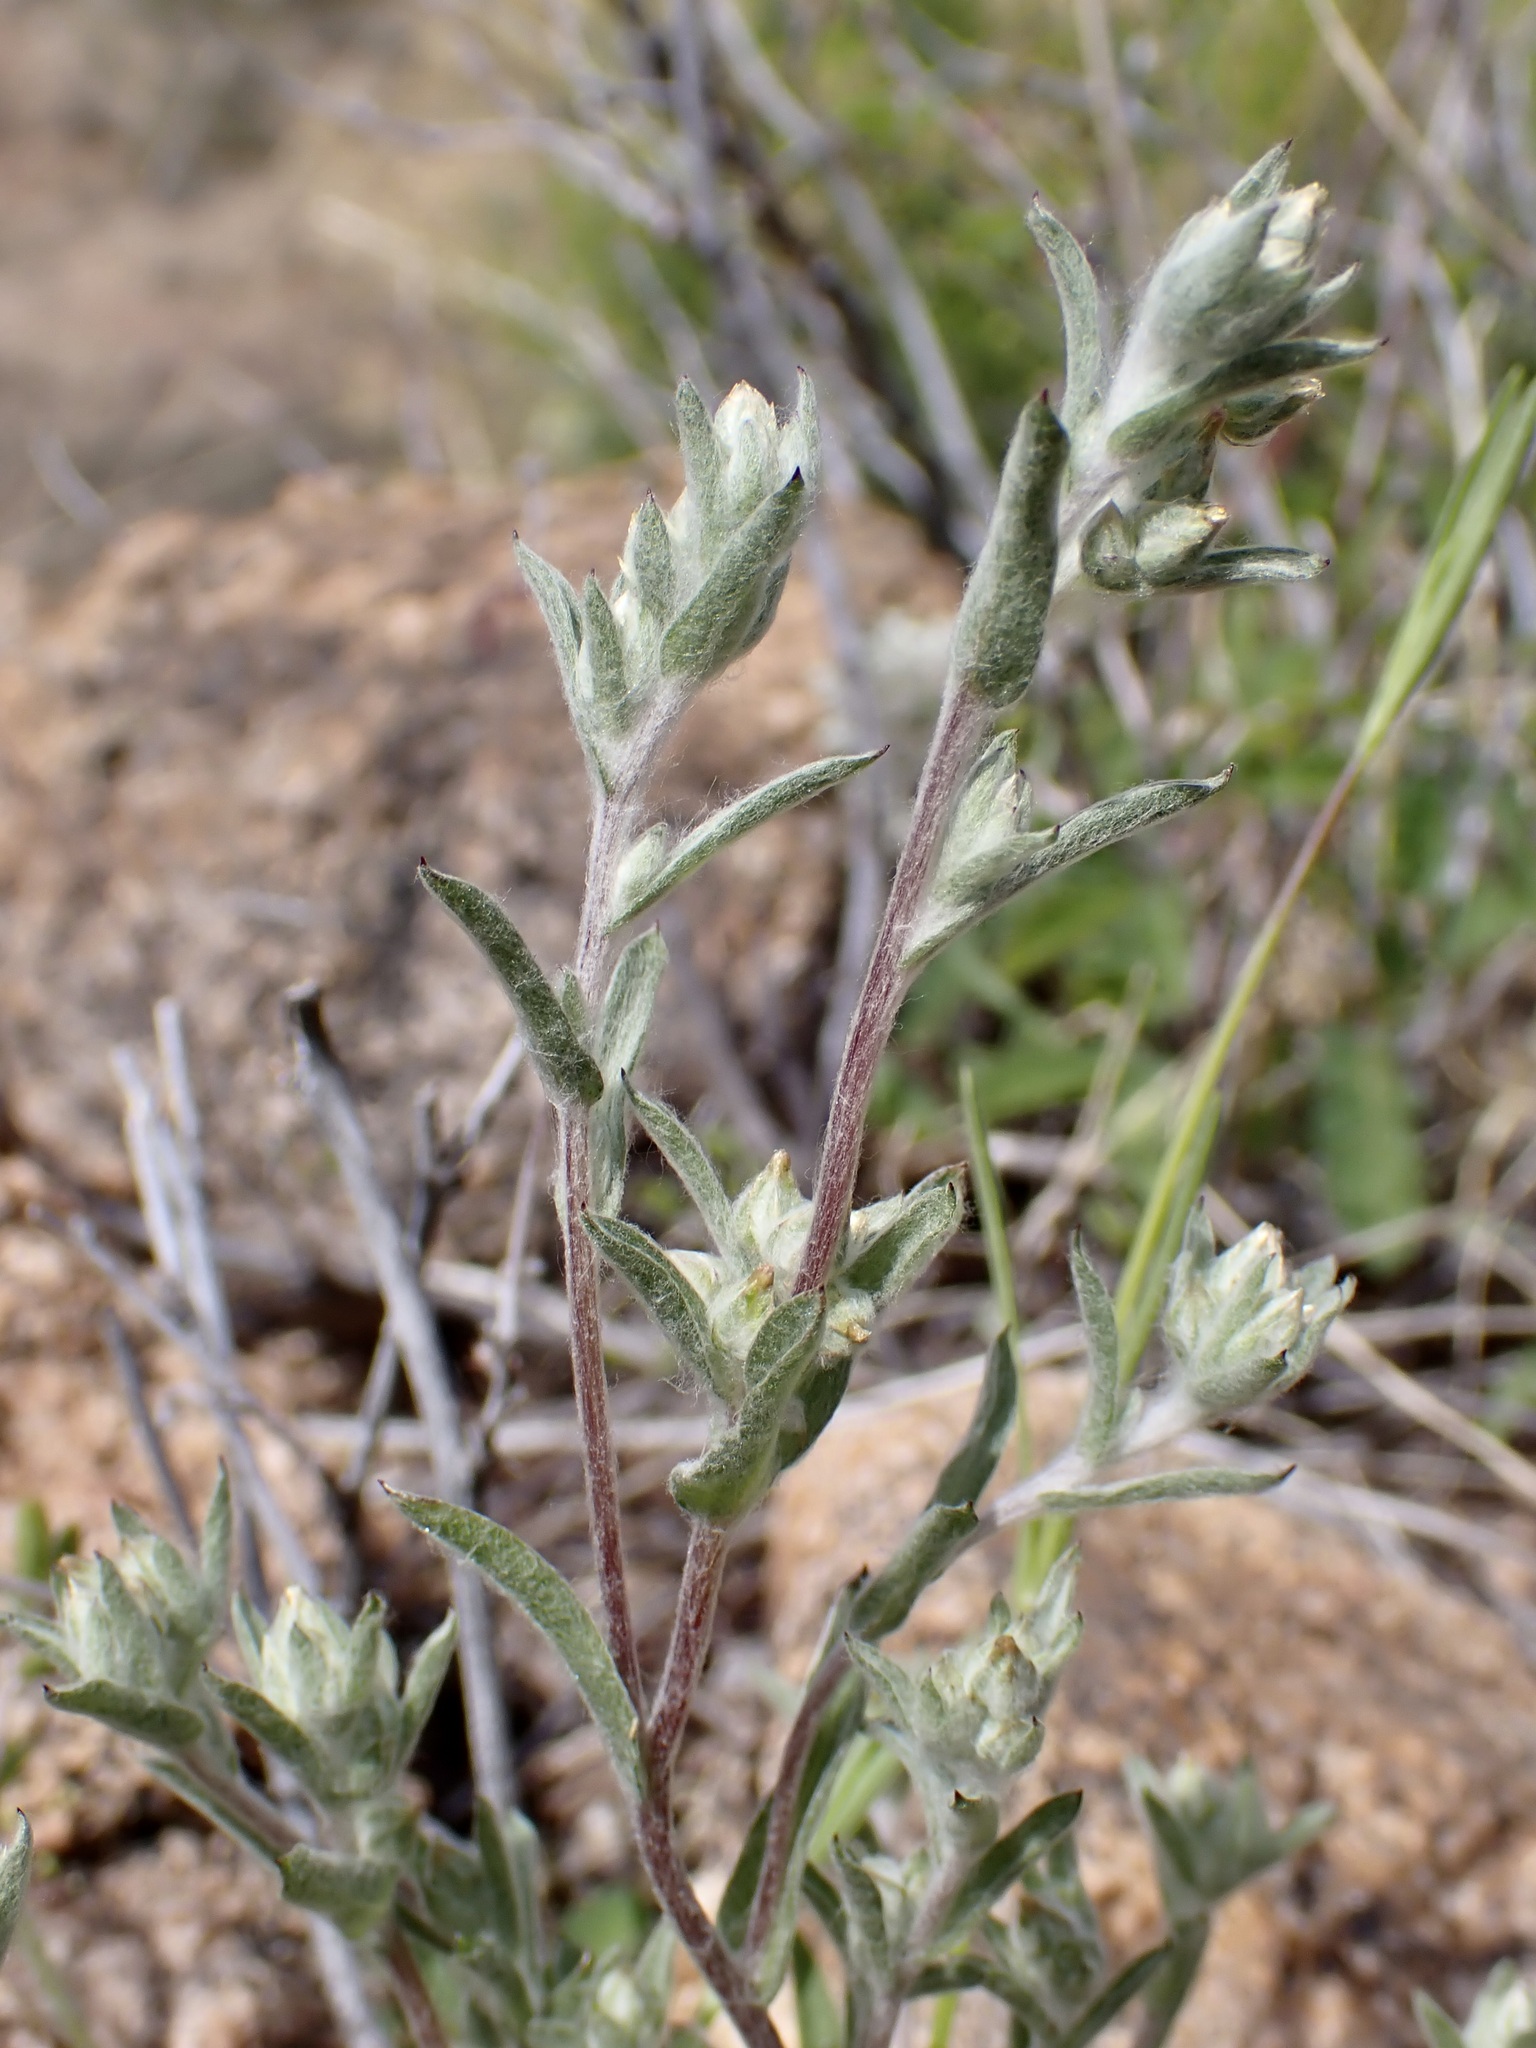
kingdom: Plantae
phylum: Tracheophyta
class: Magnoliopsida
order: Asterales
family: Asteraceae
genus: Logfia
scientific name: Logfia californica
